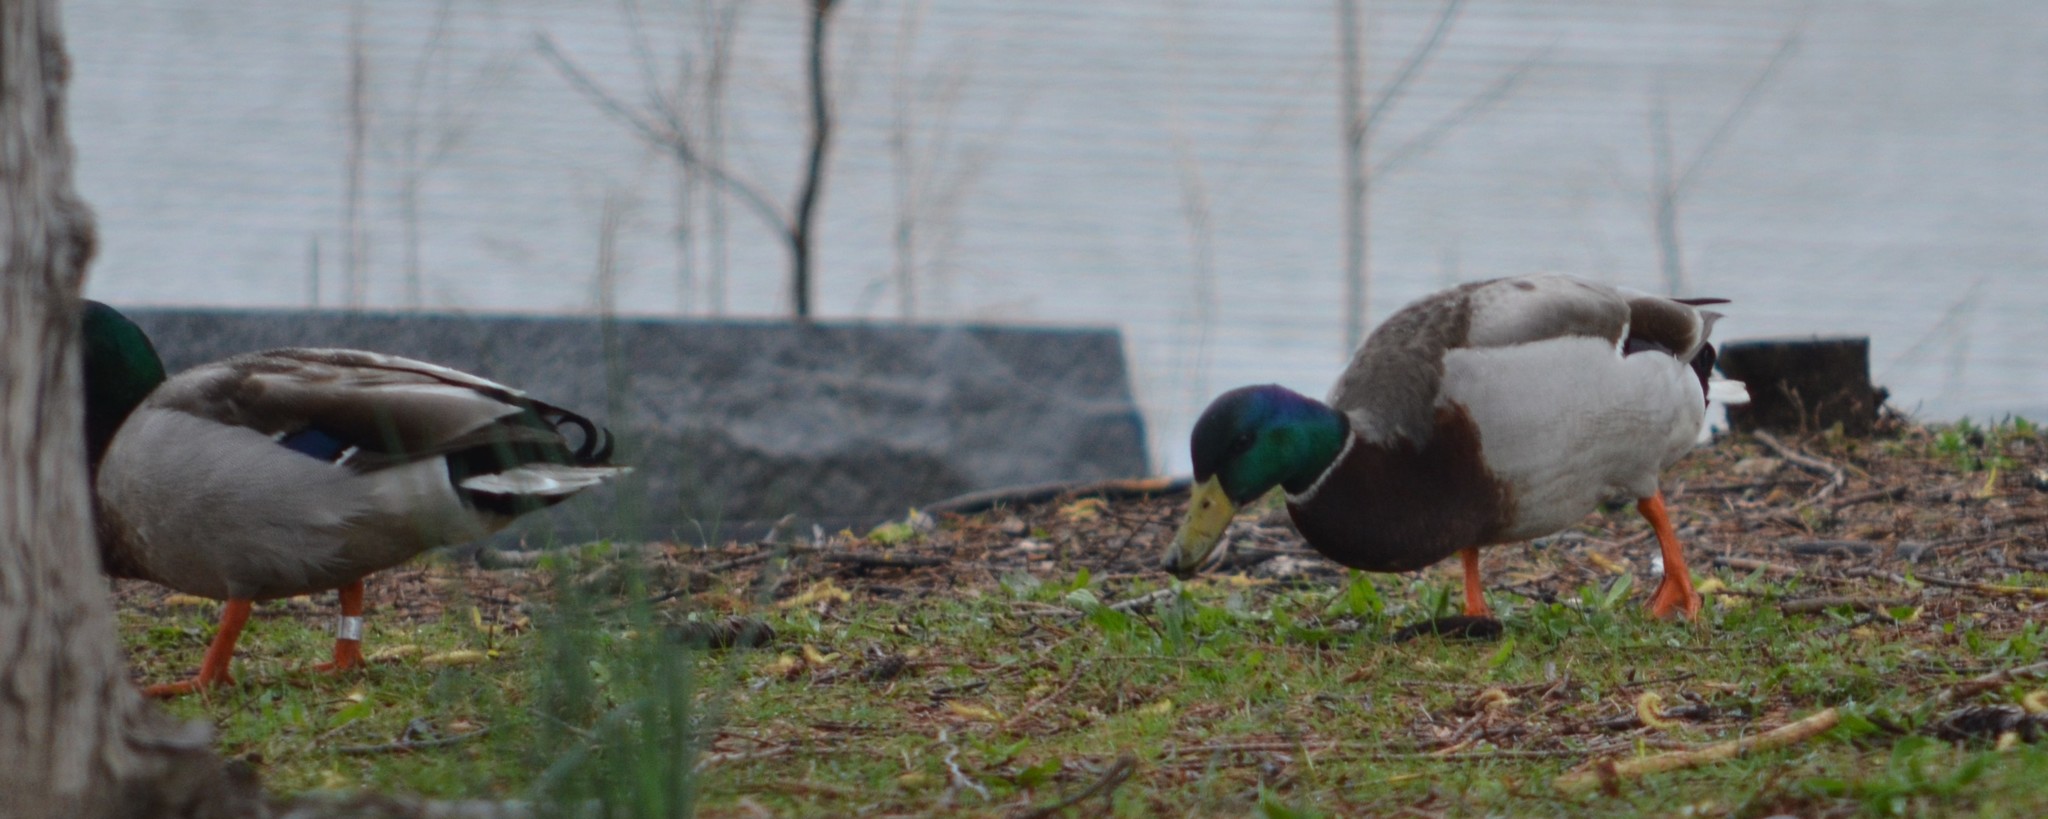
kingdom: Animalia
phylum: Chordata
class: Aves
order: Anseriformes
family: Anatidae
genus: Anas
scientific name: Anas platyrhynchos
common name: Mallard
